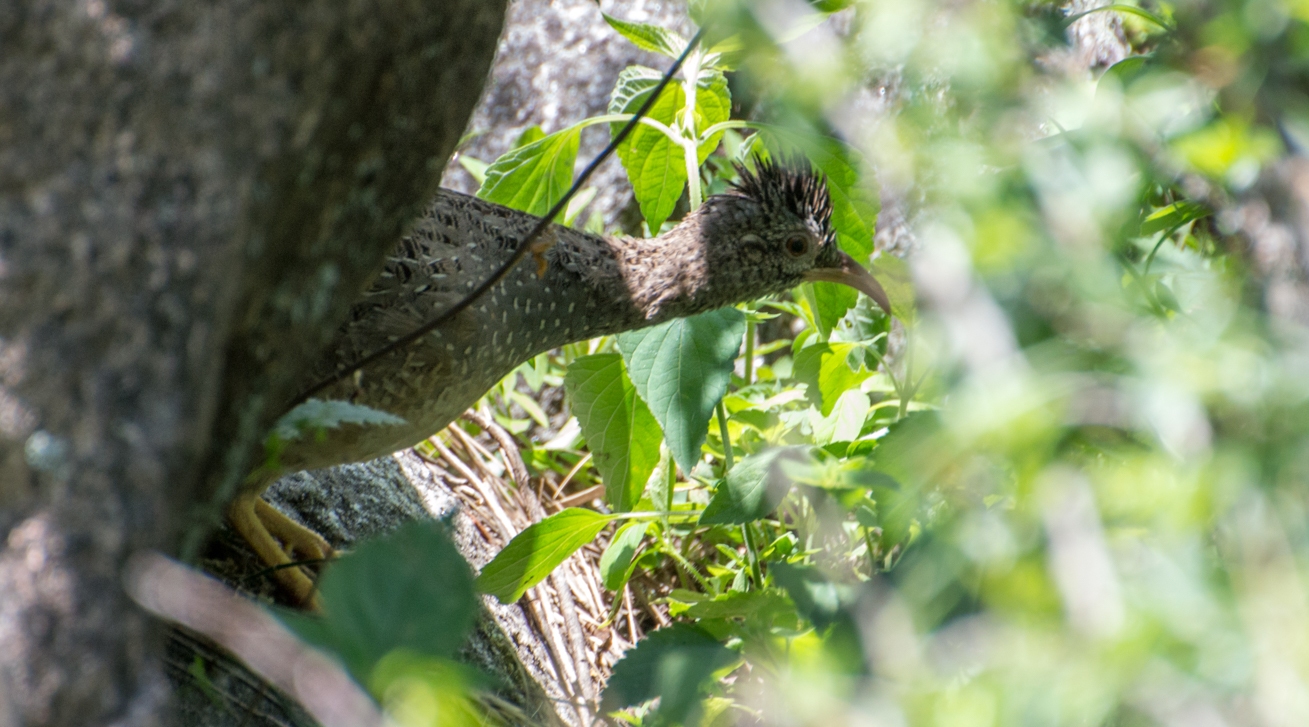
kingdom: Animalia
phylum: Chordata
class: Aves
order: Tinamiformes
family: Tinamidae
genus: Nothoprocta
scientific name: Nothoprocta pentlandii
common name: Andean tinamou
